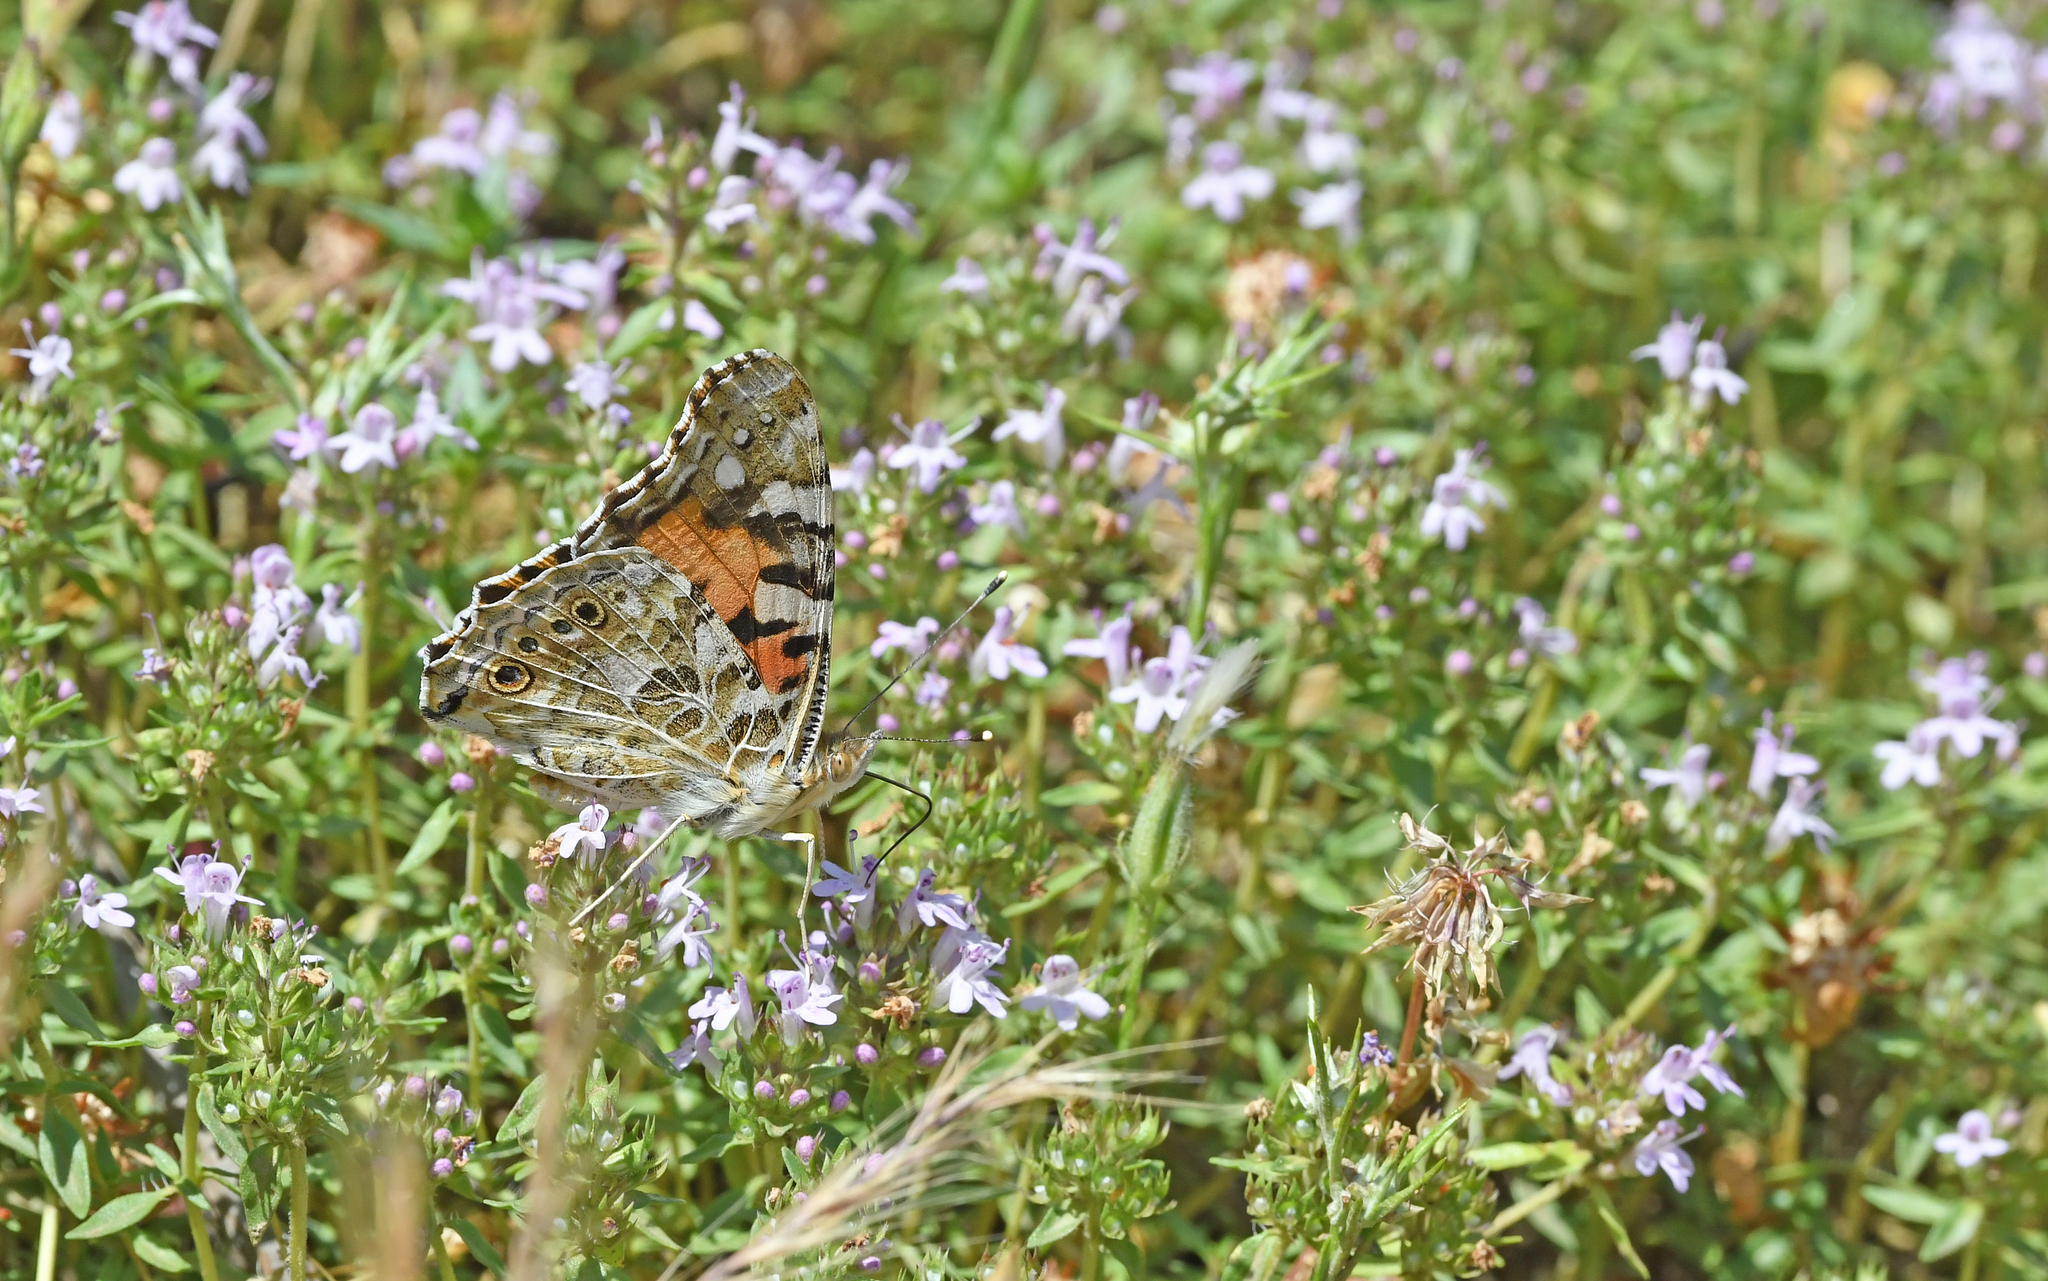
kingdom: Animalia
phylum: Arthropoda
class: Insecta
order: Lepidoptera
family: Nymphalidae
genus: Vanessa
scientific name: Vanessa cardui
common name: Painted lady
